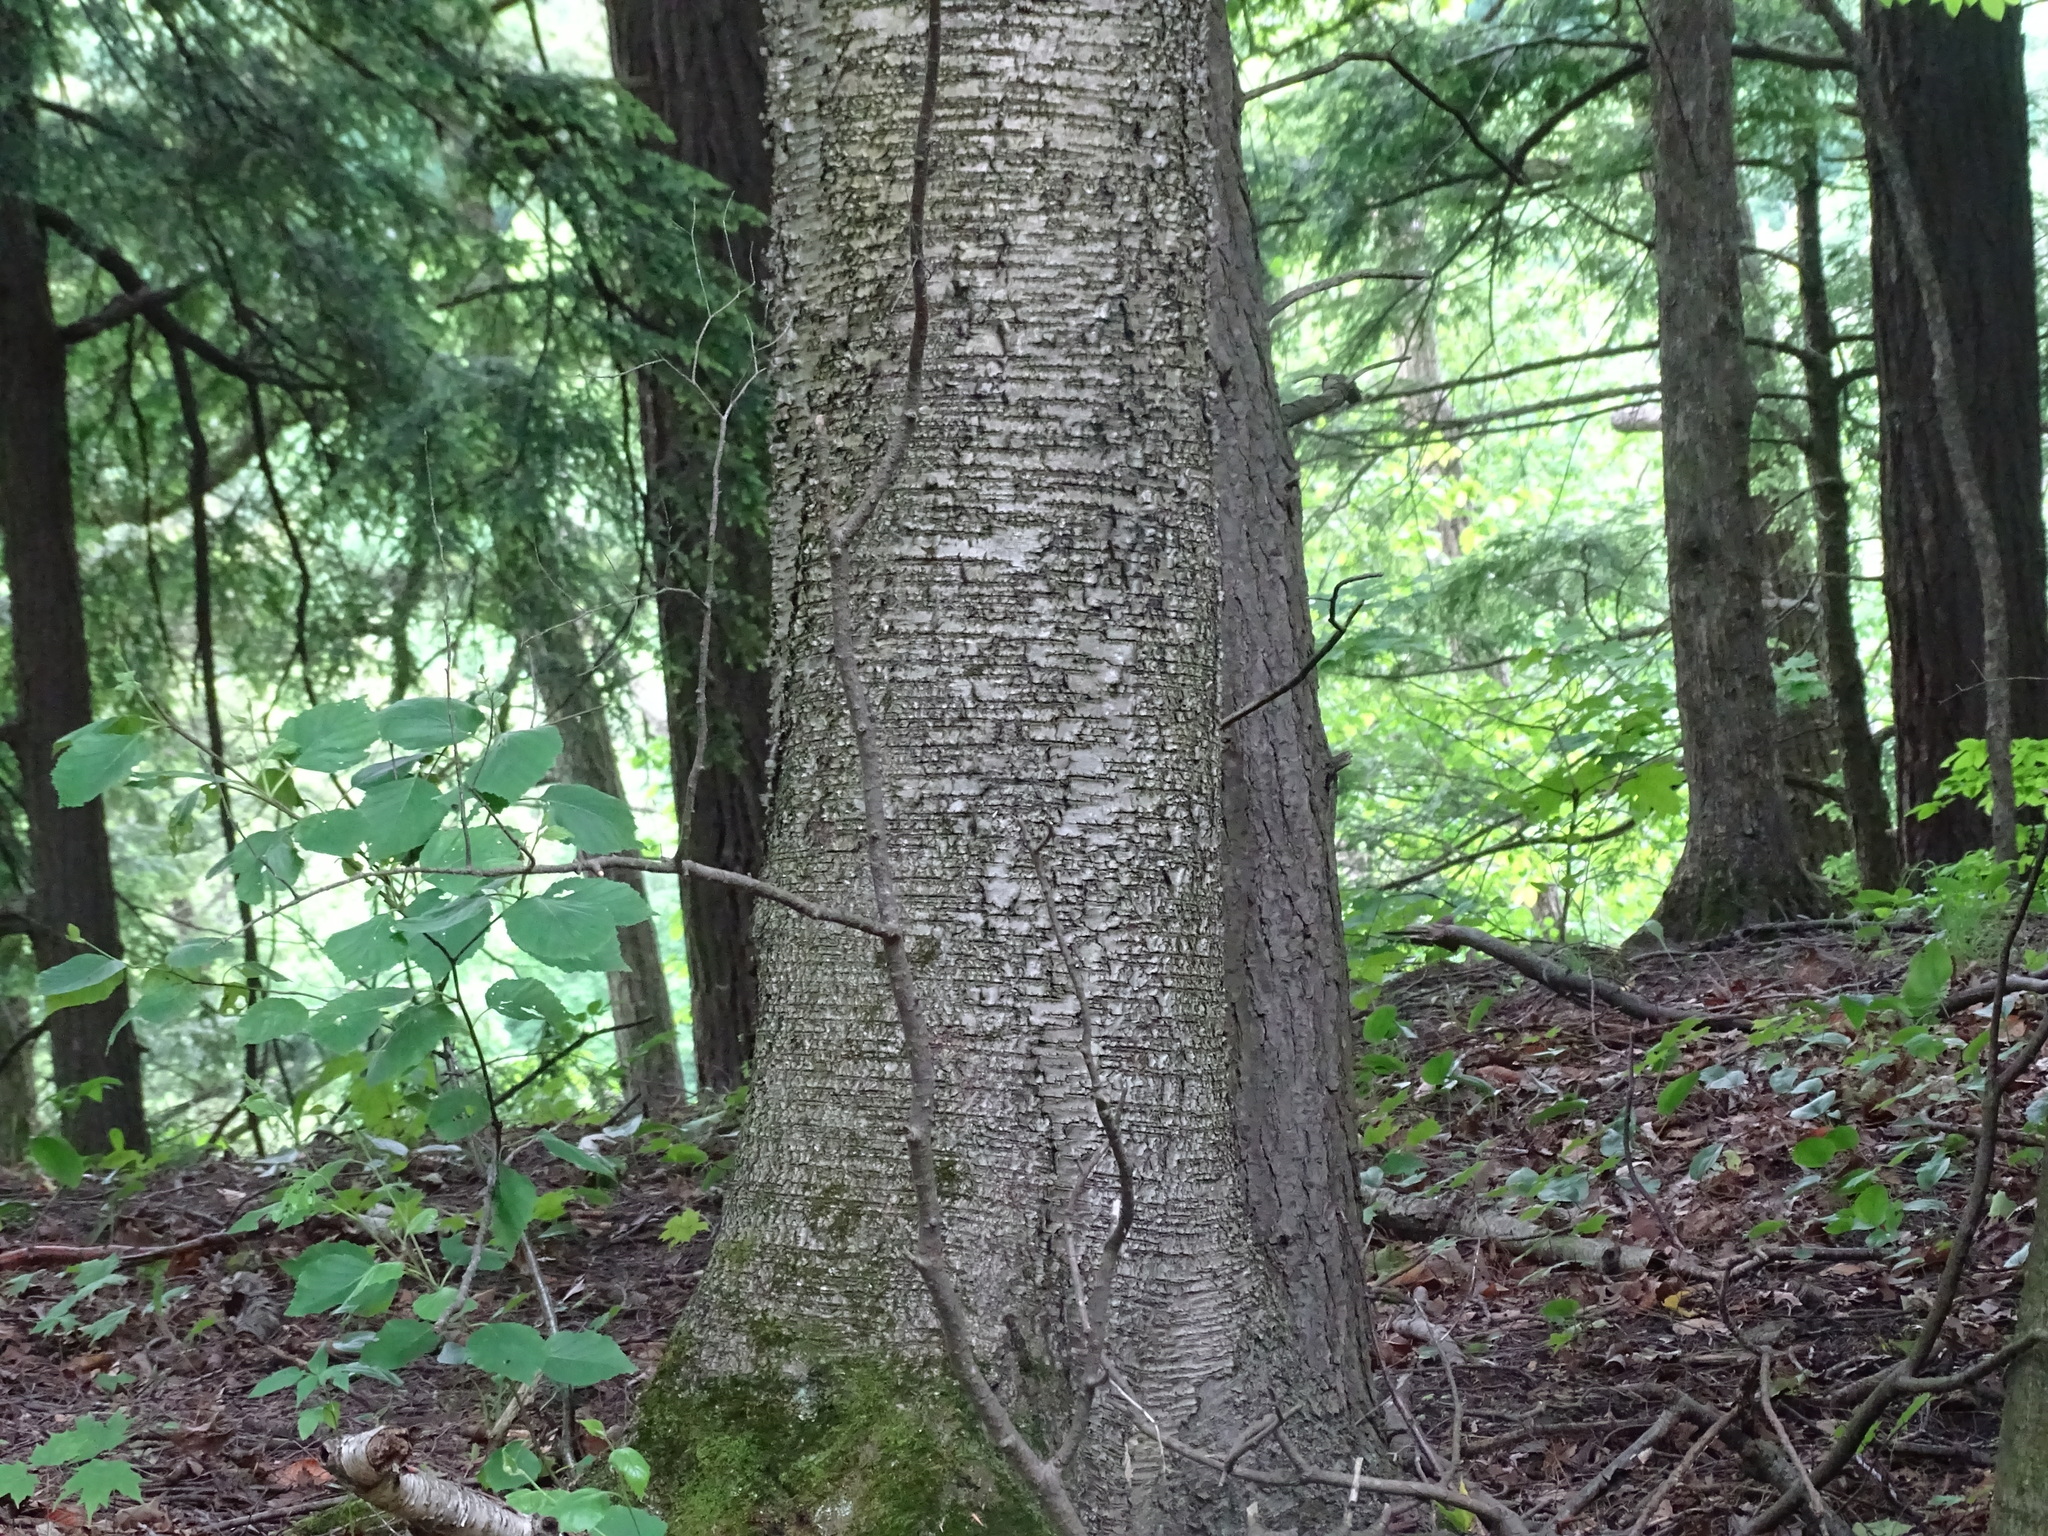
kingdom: Plantae
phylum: Tracheophyta
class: Magnoliopsida
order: Fagales
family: Betulaceae
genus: Betula
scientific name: Betula papyrifera
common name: Paper birch
